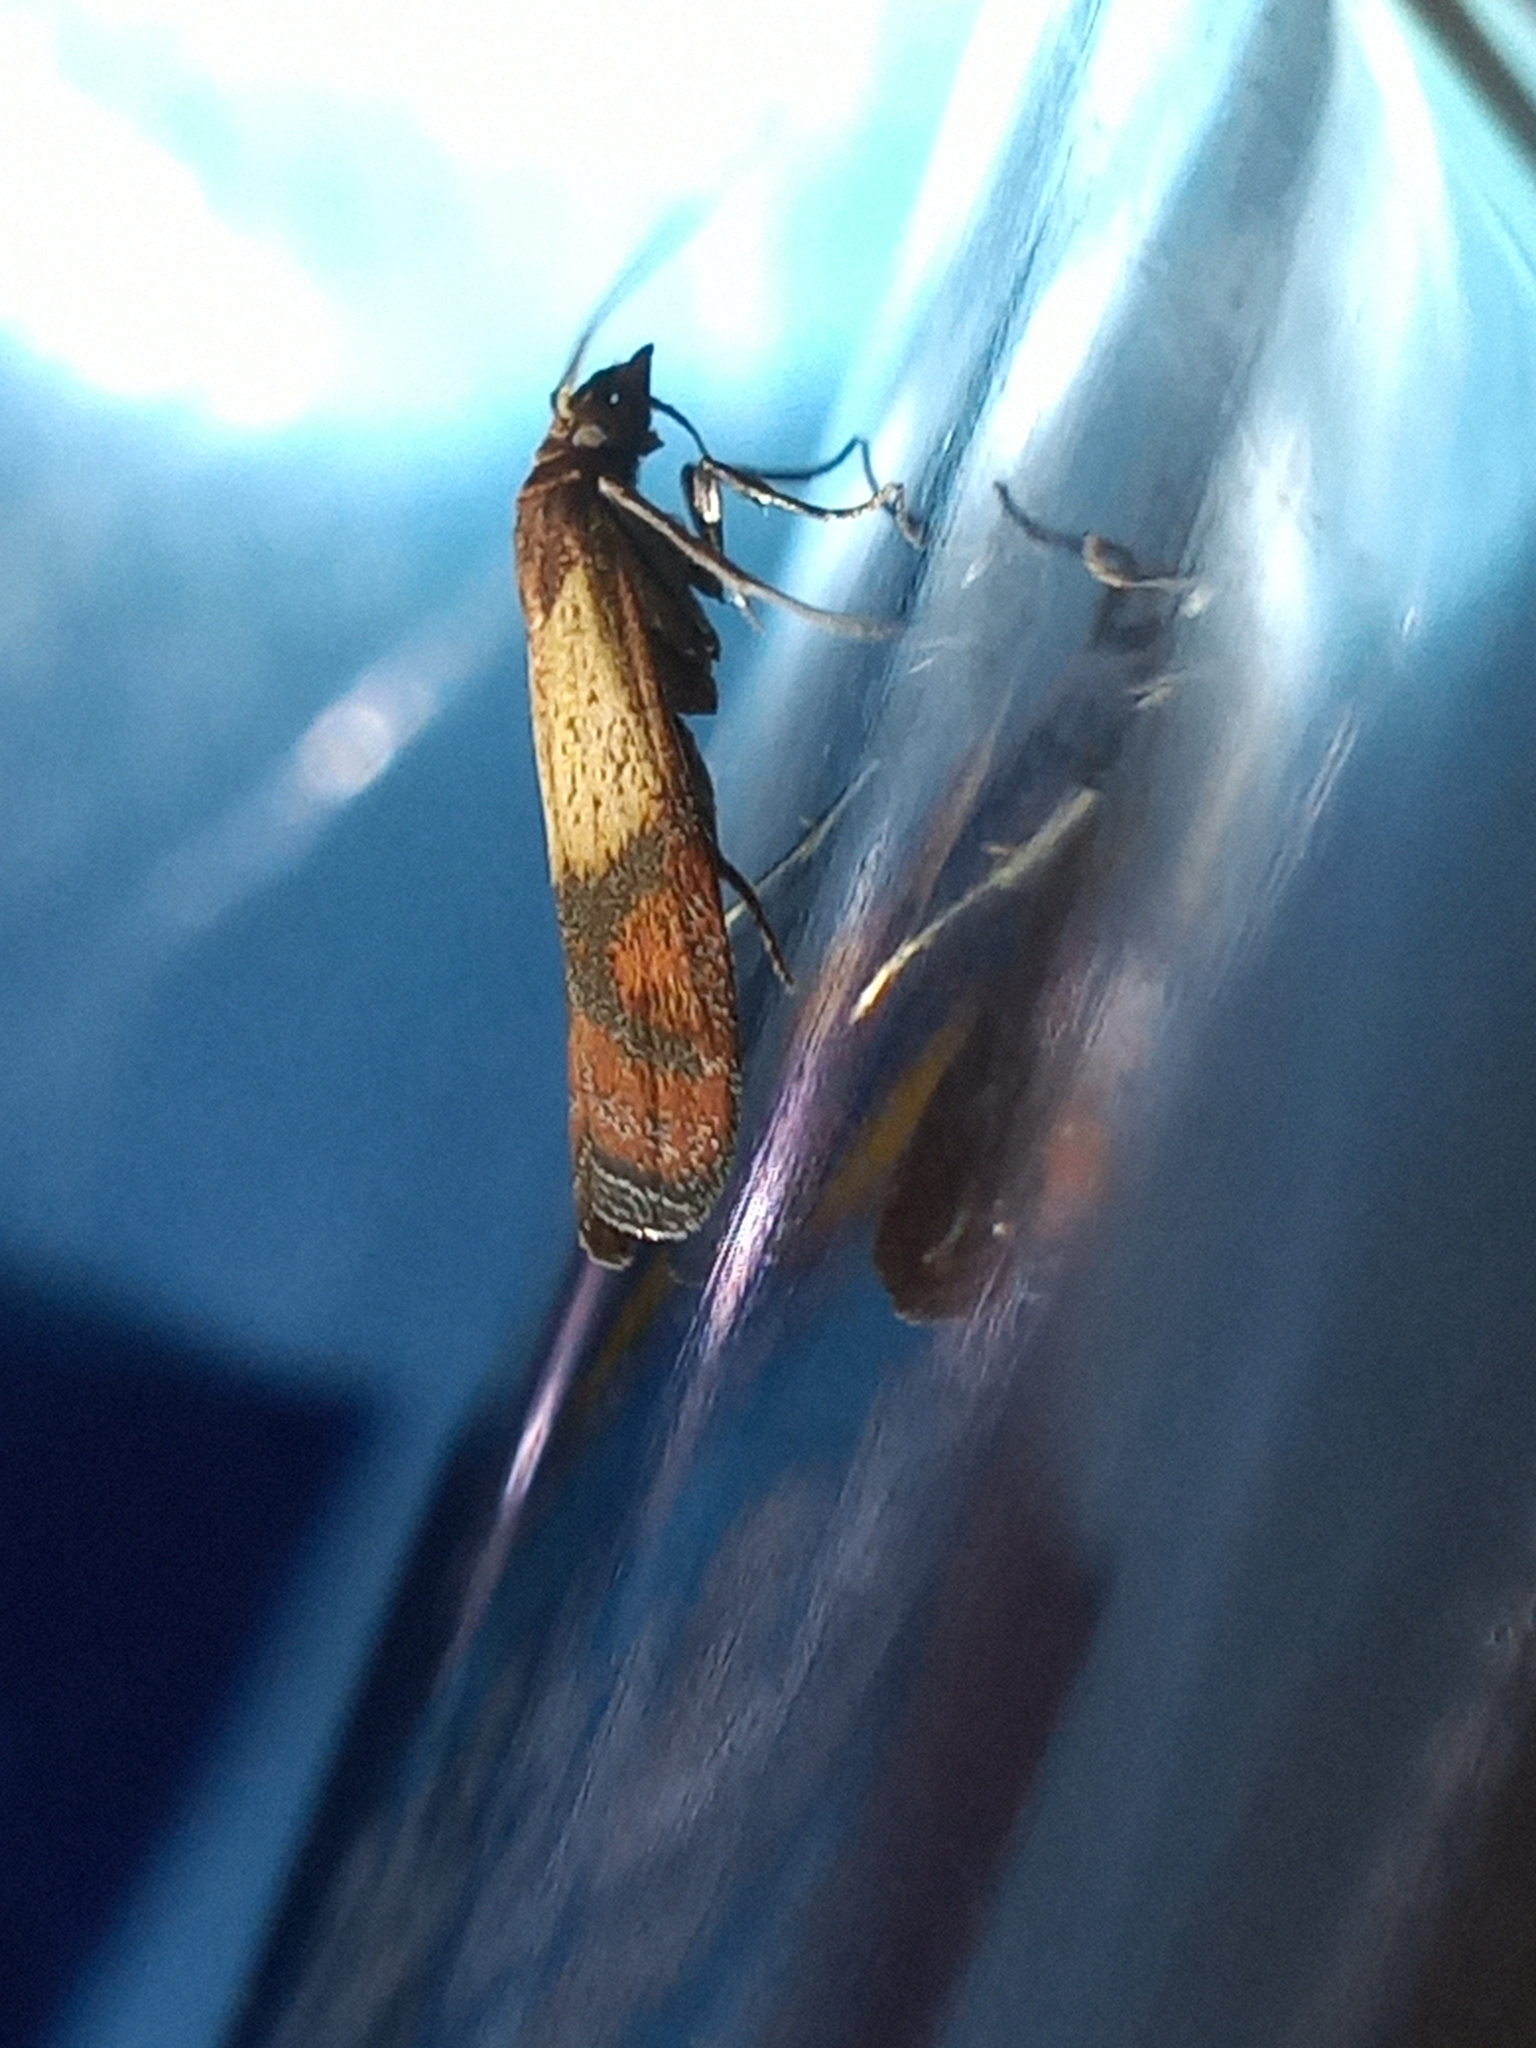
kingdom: Animalia
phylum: Arthropoda
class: Insecta
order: Lepidoptera
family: Pyralidae
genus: Plodia
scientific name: Plodia interpunctella
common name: Indian meal moth
